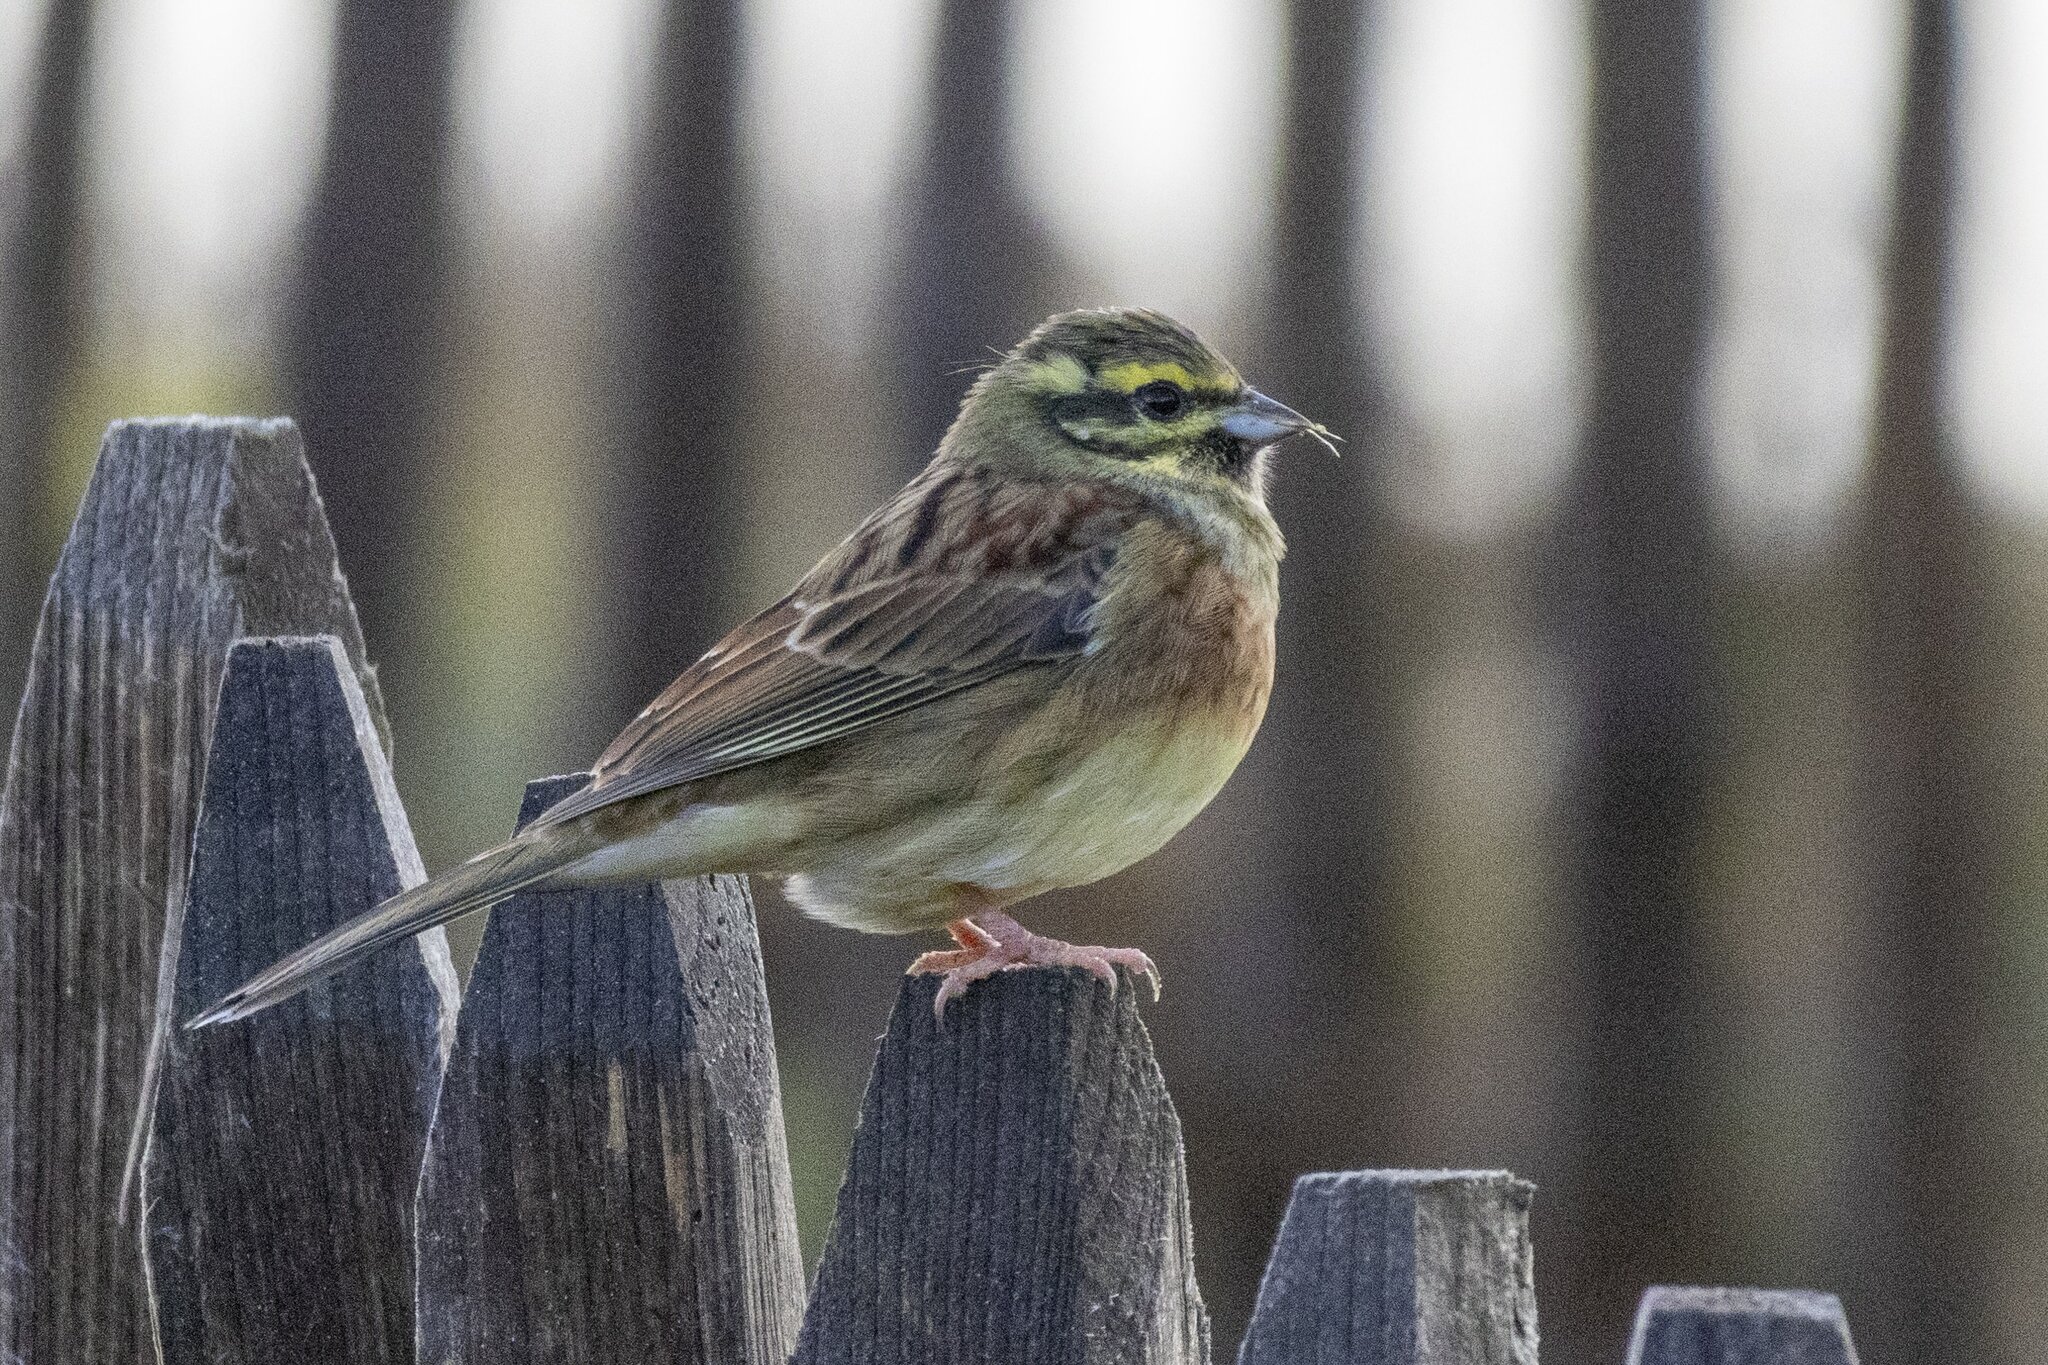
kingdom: Animalia
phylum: Chordata
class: Aves
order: Passeriformes
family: Emberizidae
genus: Emberiza
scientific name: Emberiza cirlus
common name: Cirl bunting
